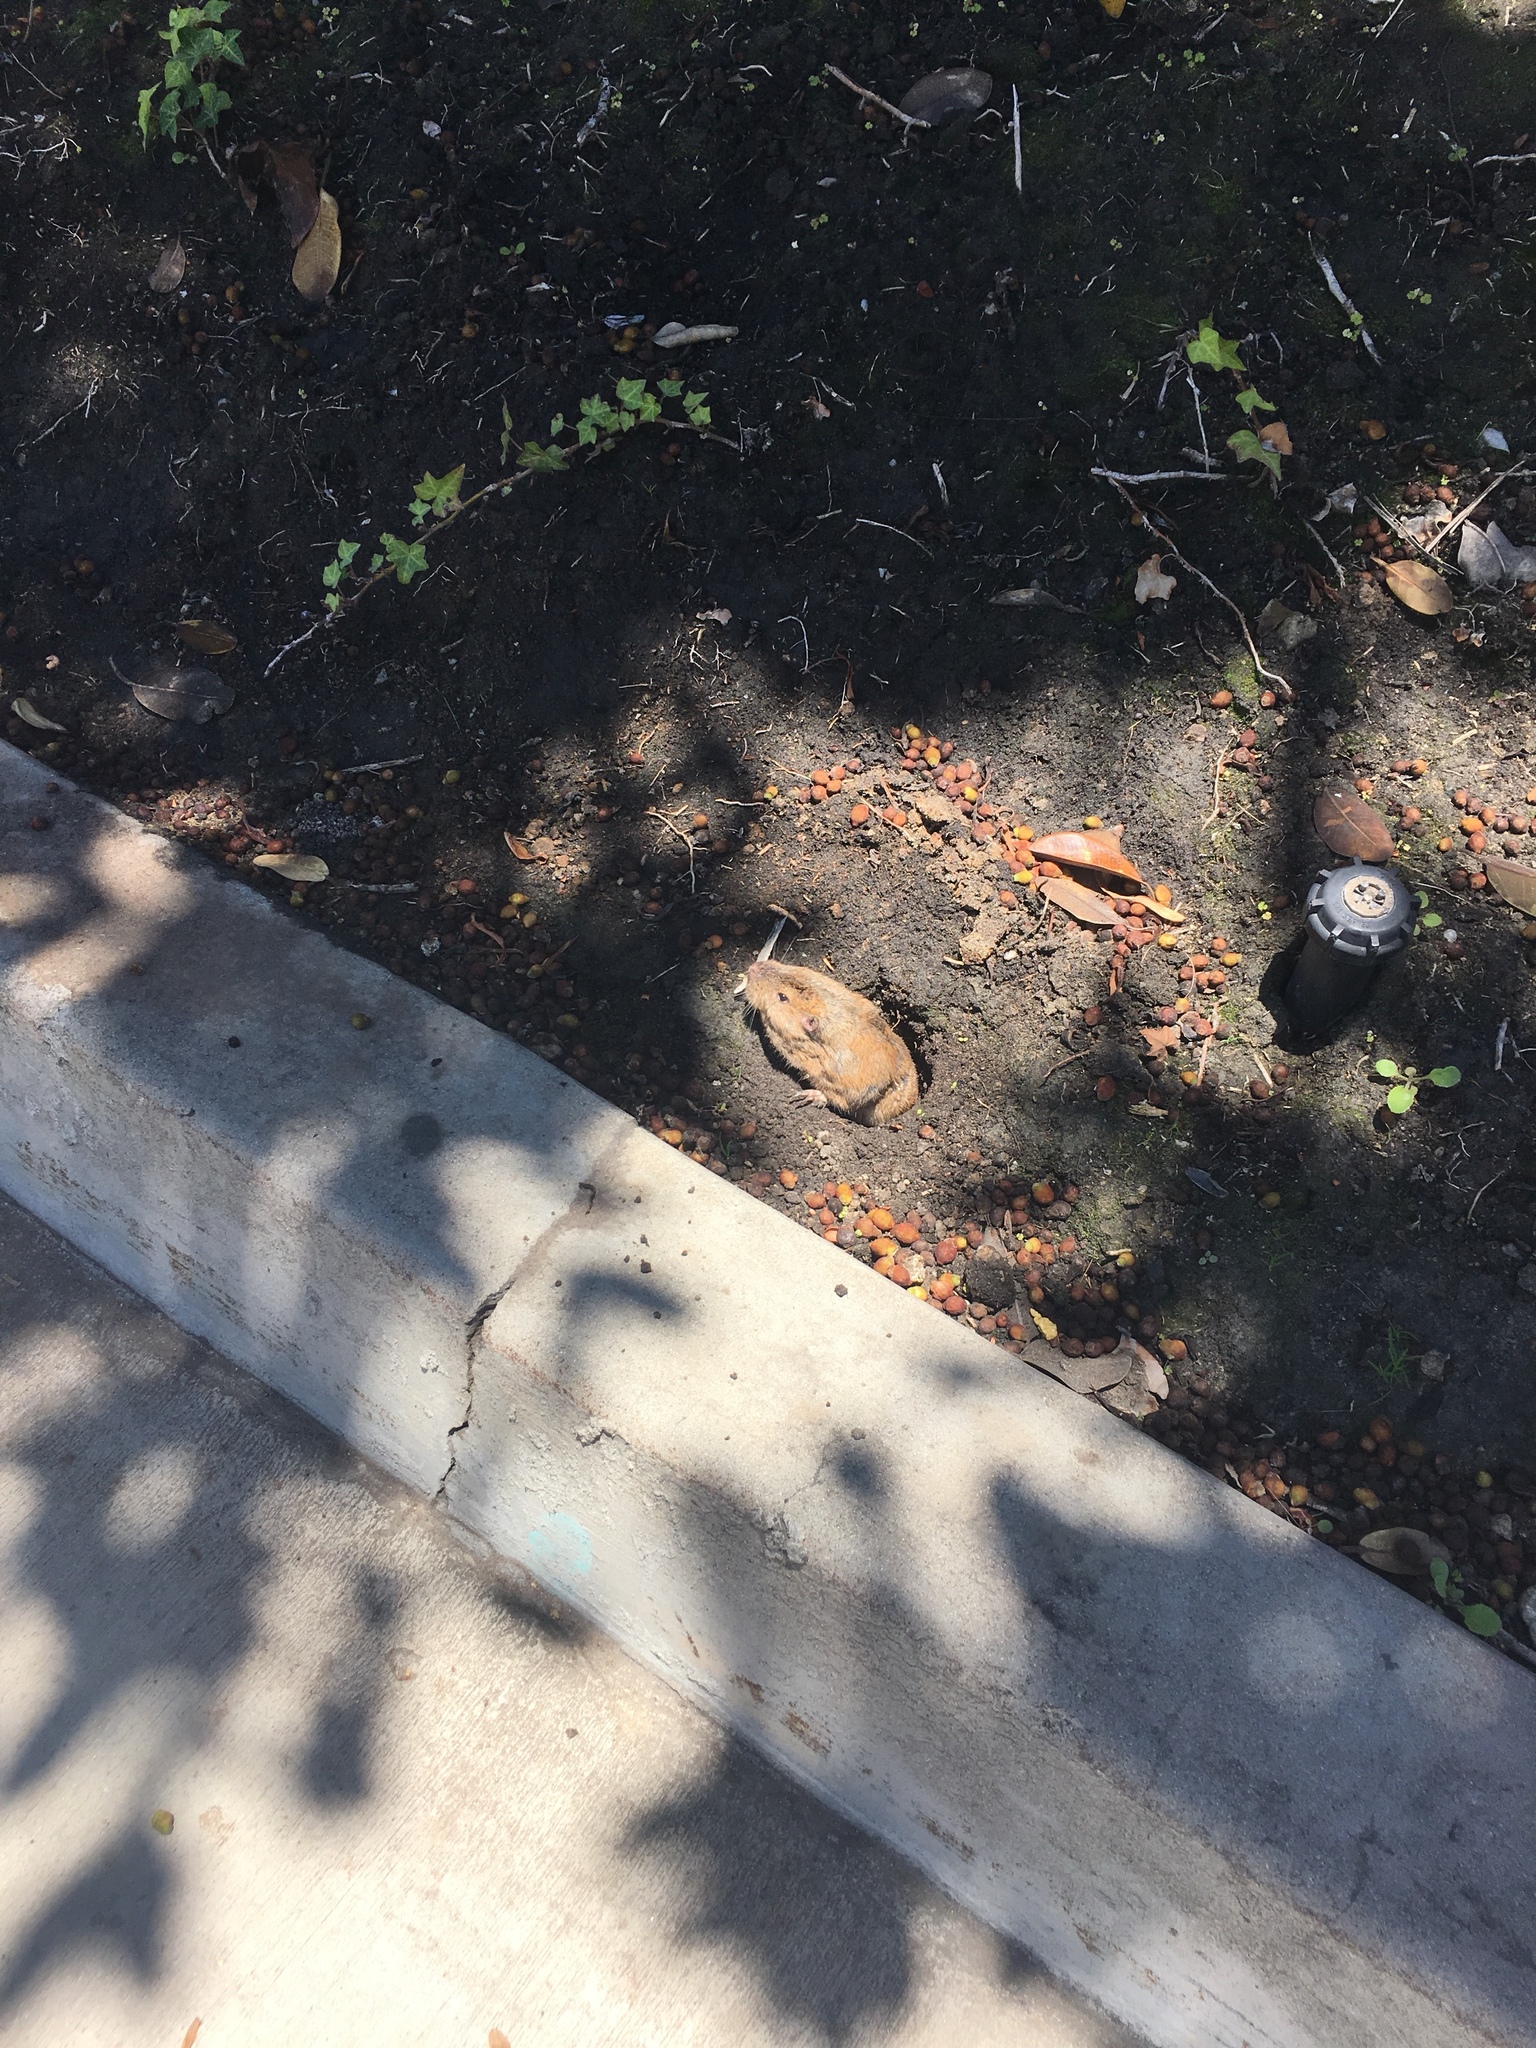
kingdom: Animalia
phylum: Chordata
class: Mammalia
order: Rodentia
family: Geomyidae
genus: Thomomys
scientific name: Thomomys bottae
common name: Botta's pocket gopher
